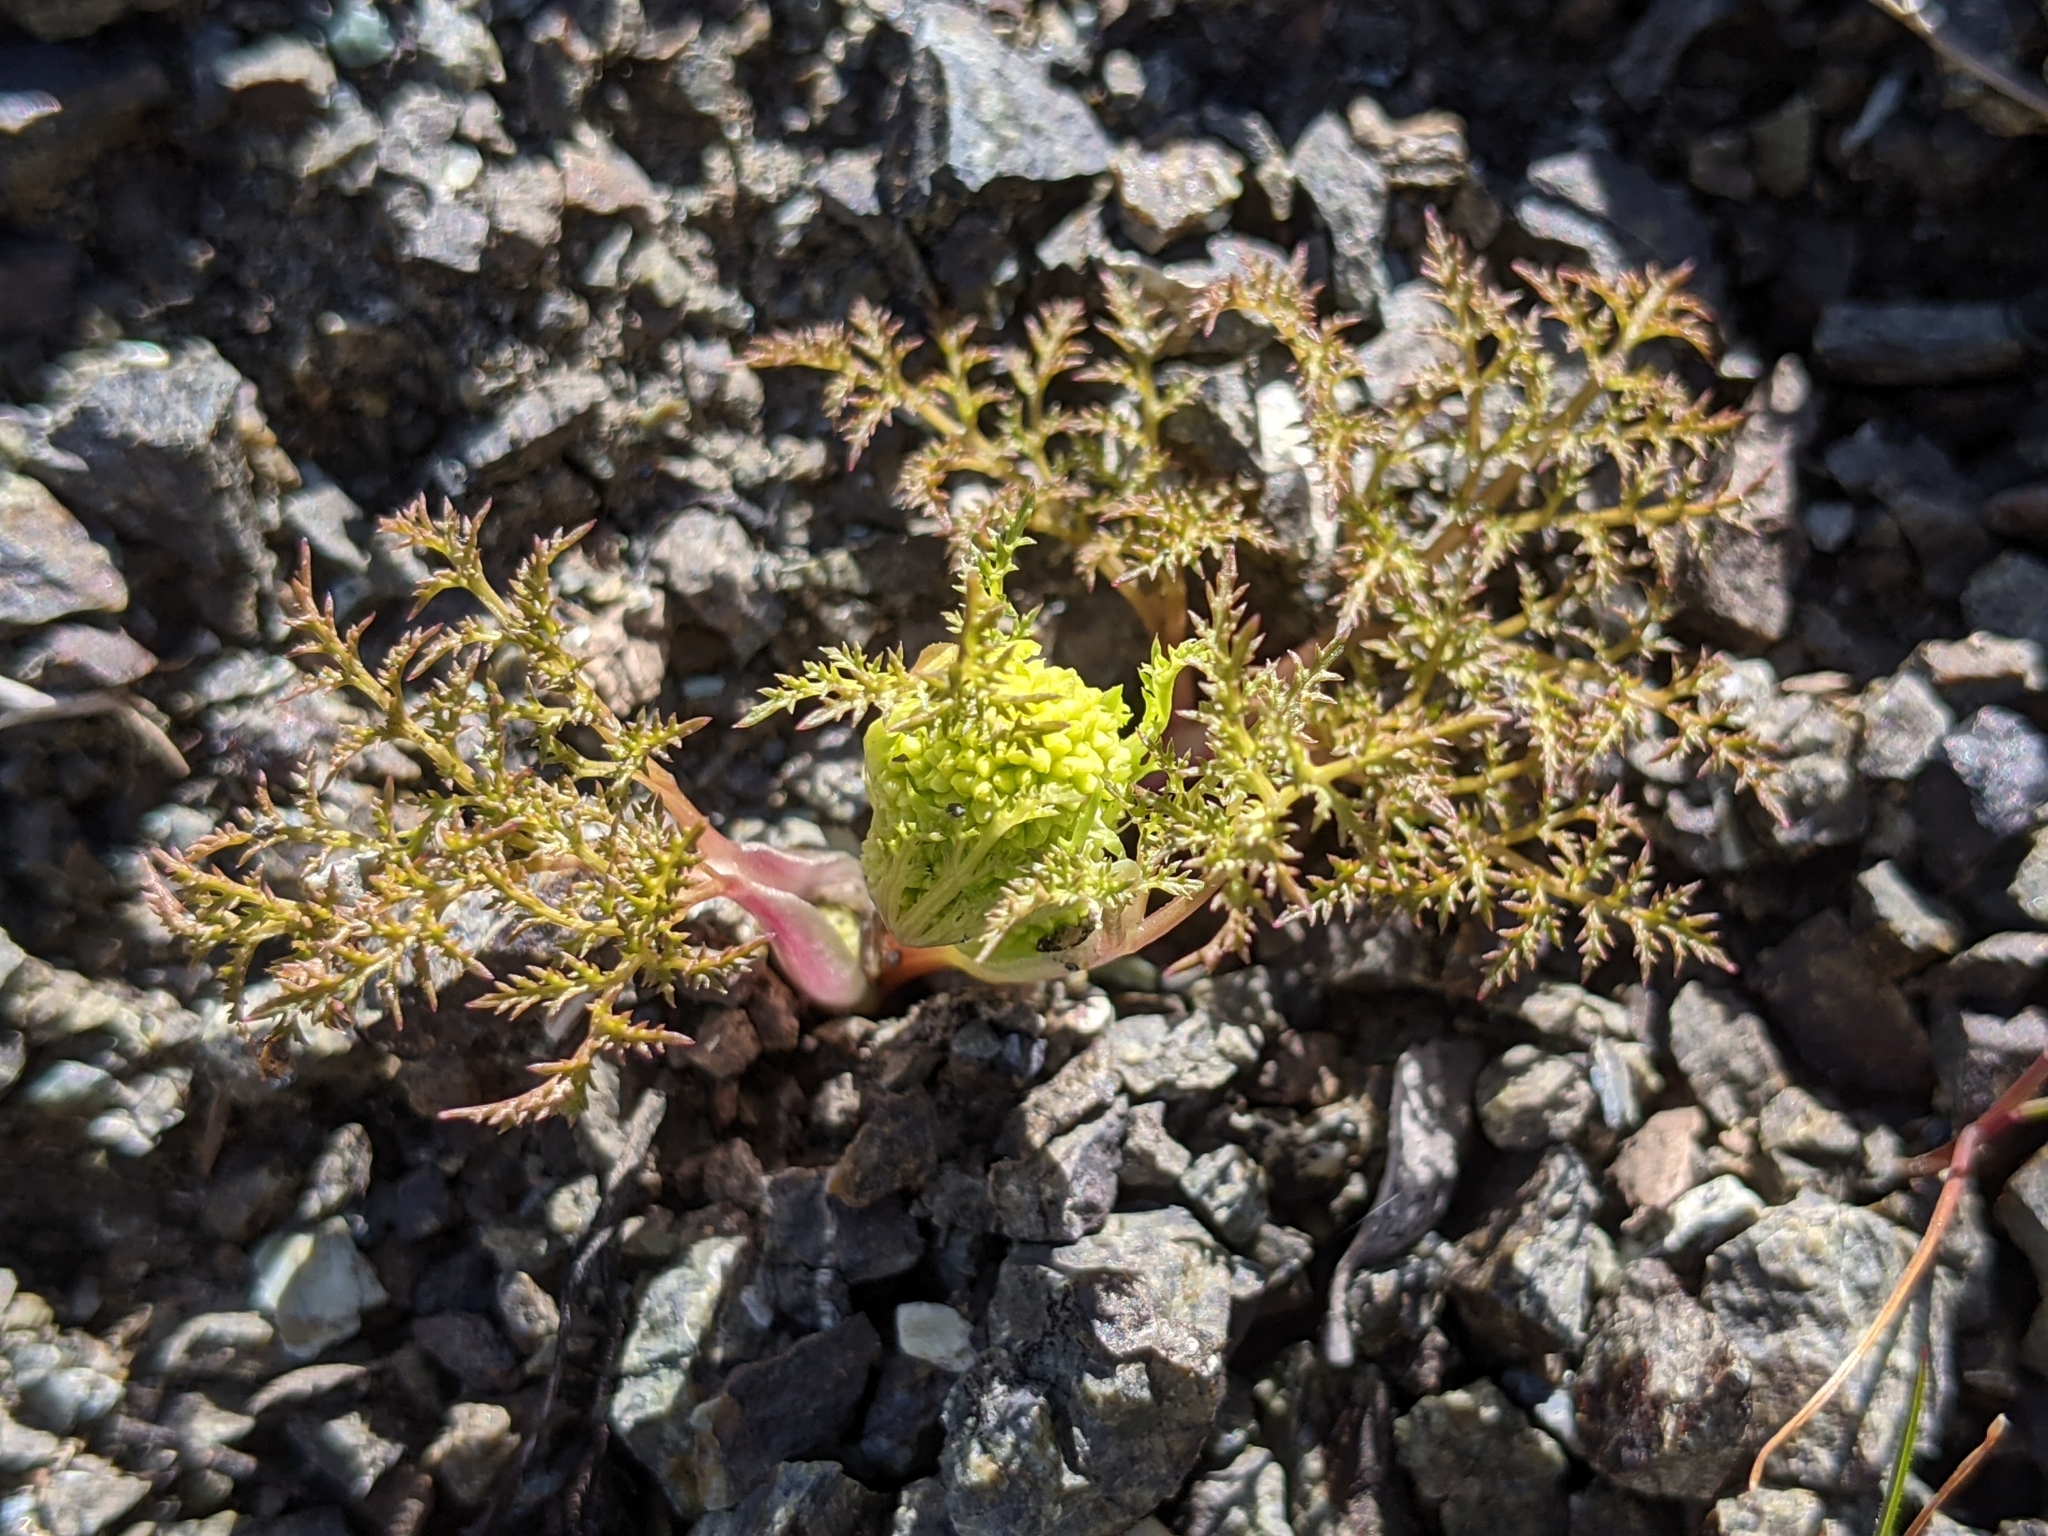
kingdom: Plantae
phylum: Tracheophyta
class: Magnoliopsida
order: Apiales
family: Apiaceae
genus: Sanicula
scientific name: Sanicula tuberosa
